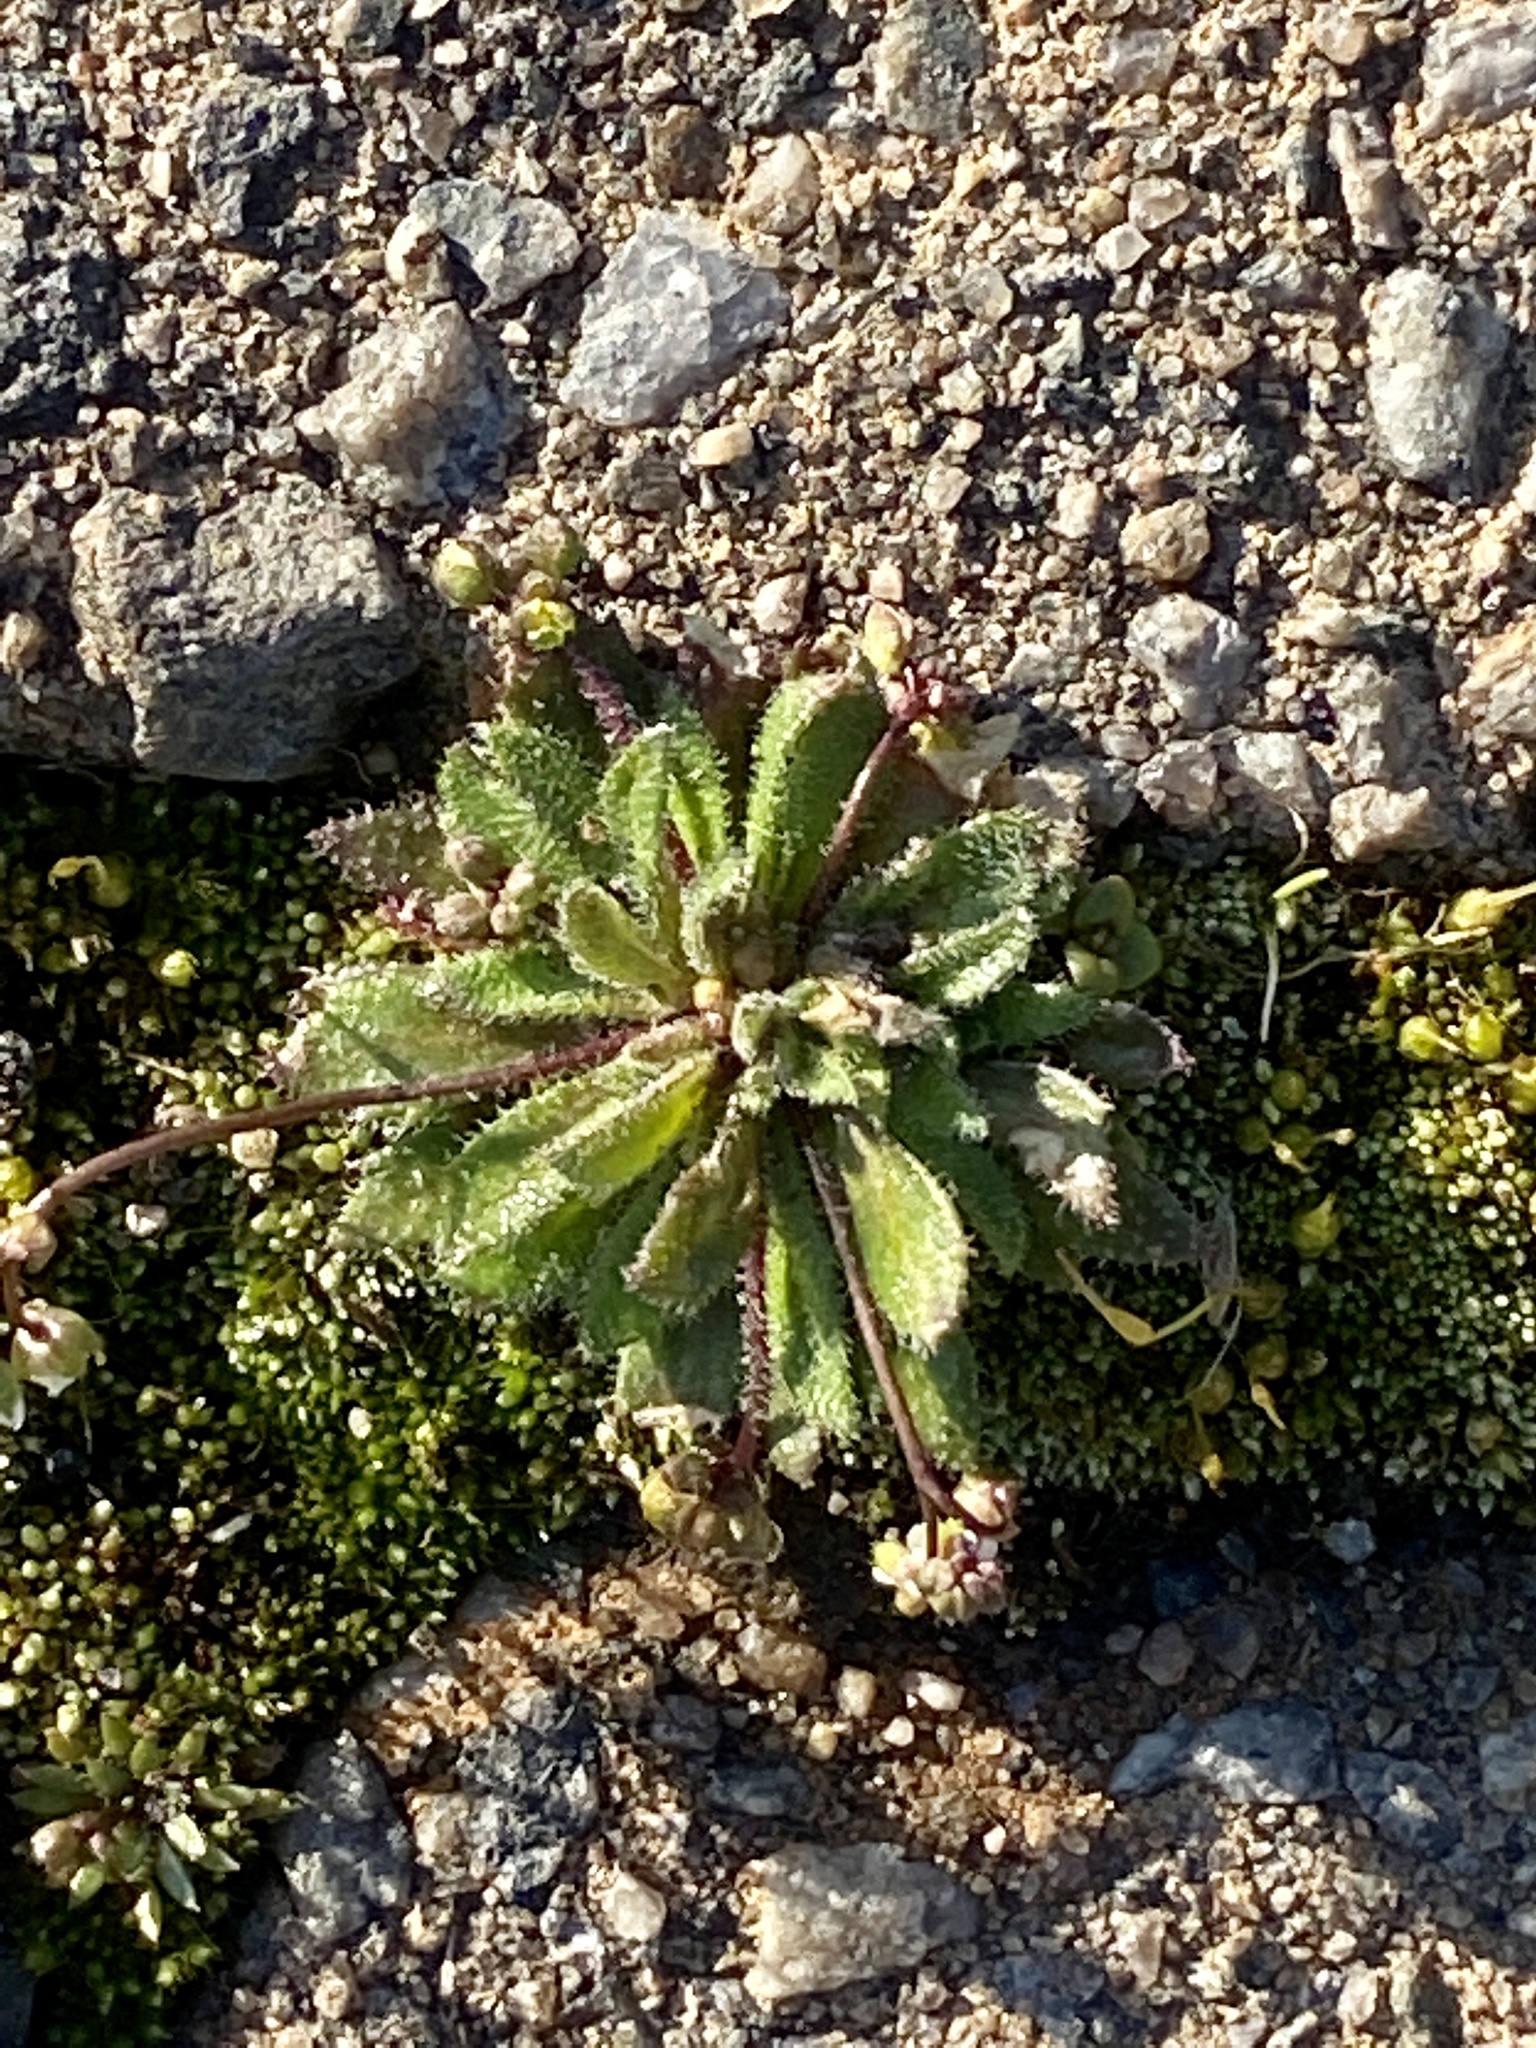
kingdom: Plantae
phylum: Tracheophyta
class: Magnoliopsida
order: Brassicales
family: Brassicaceae
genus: Draba
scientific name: Draba verna
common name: Spring draba
